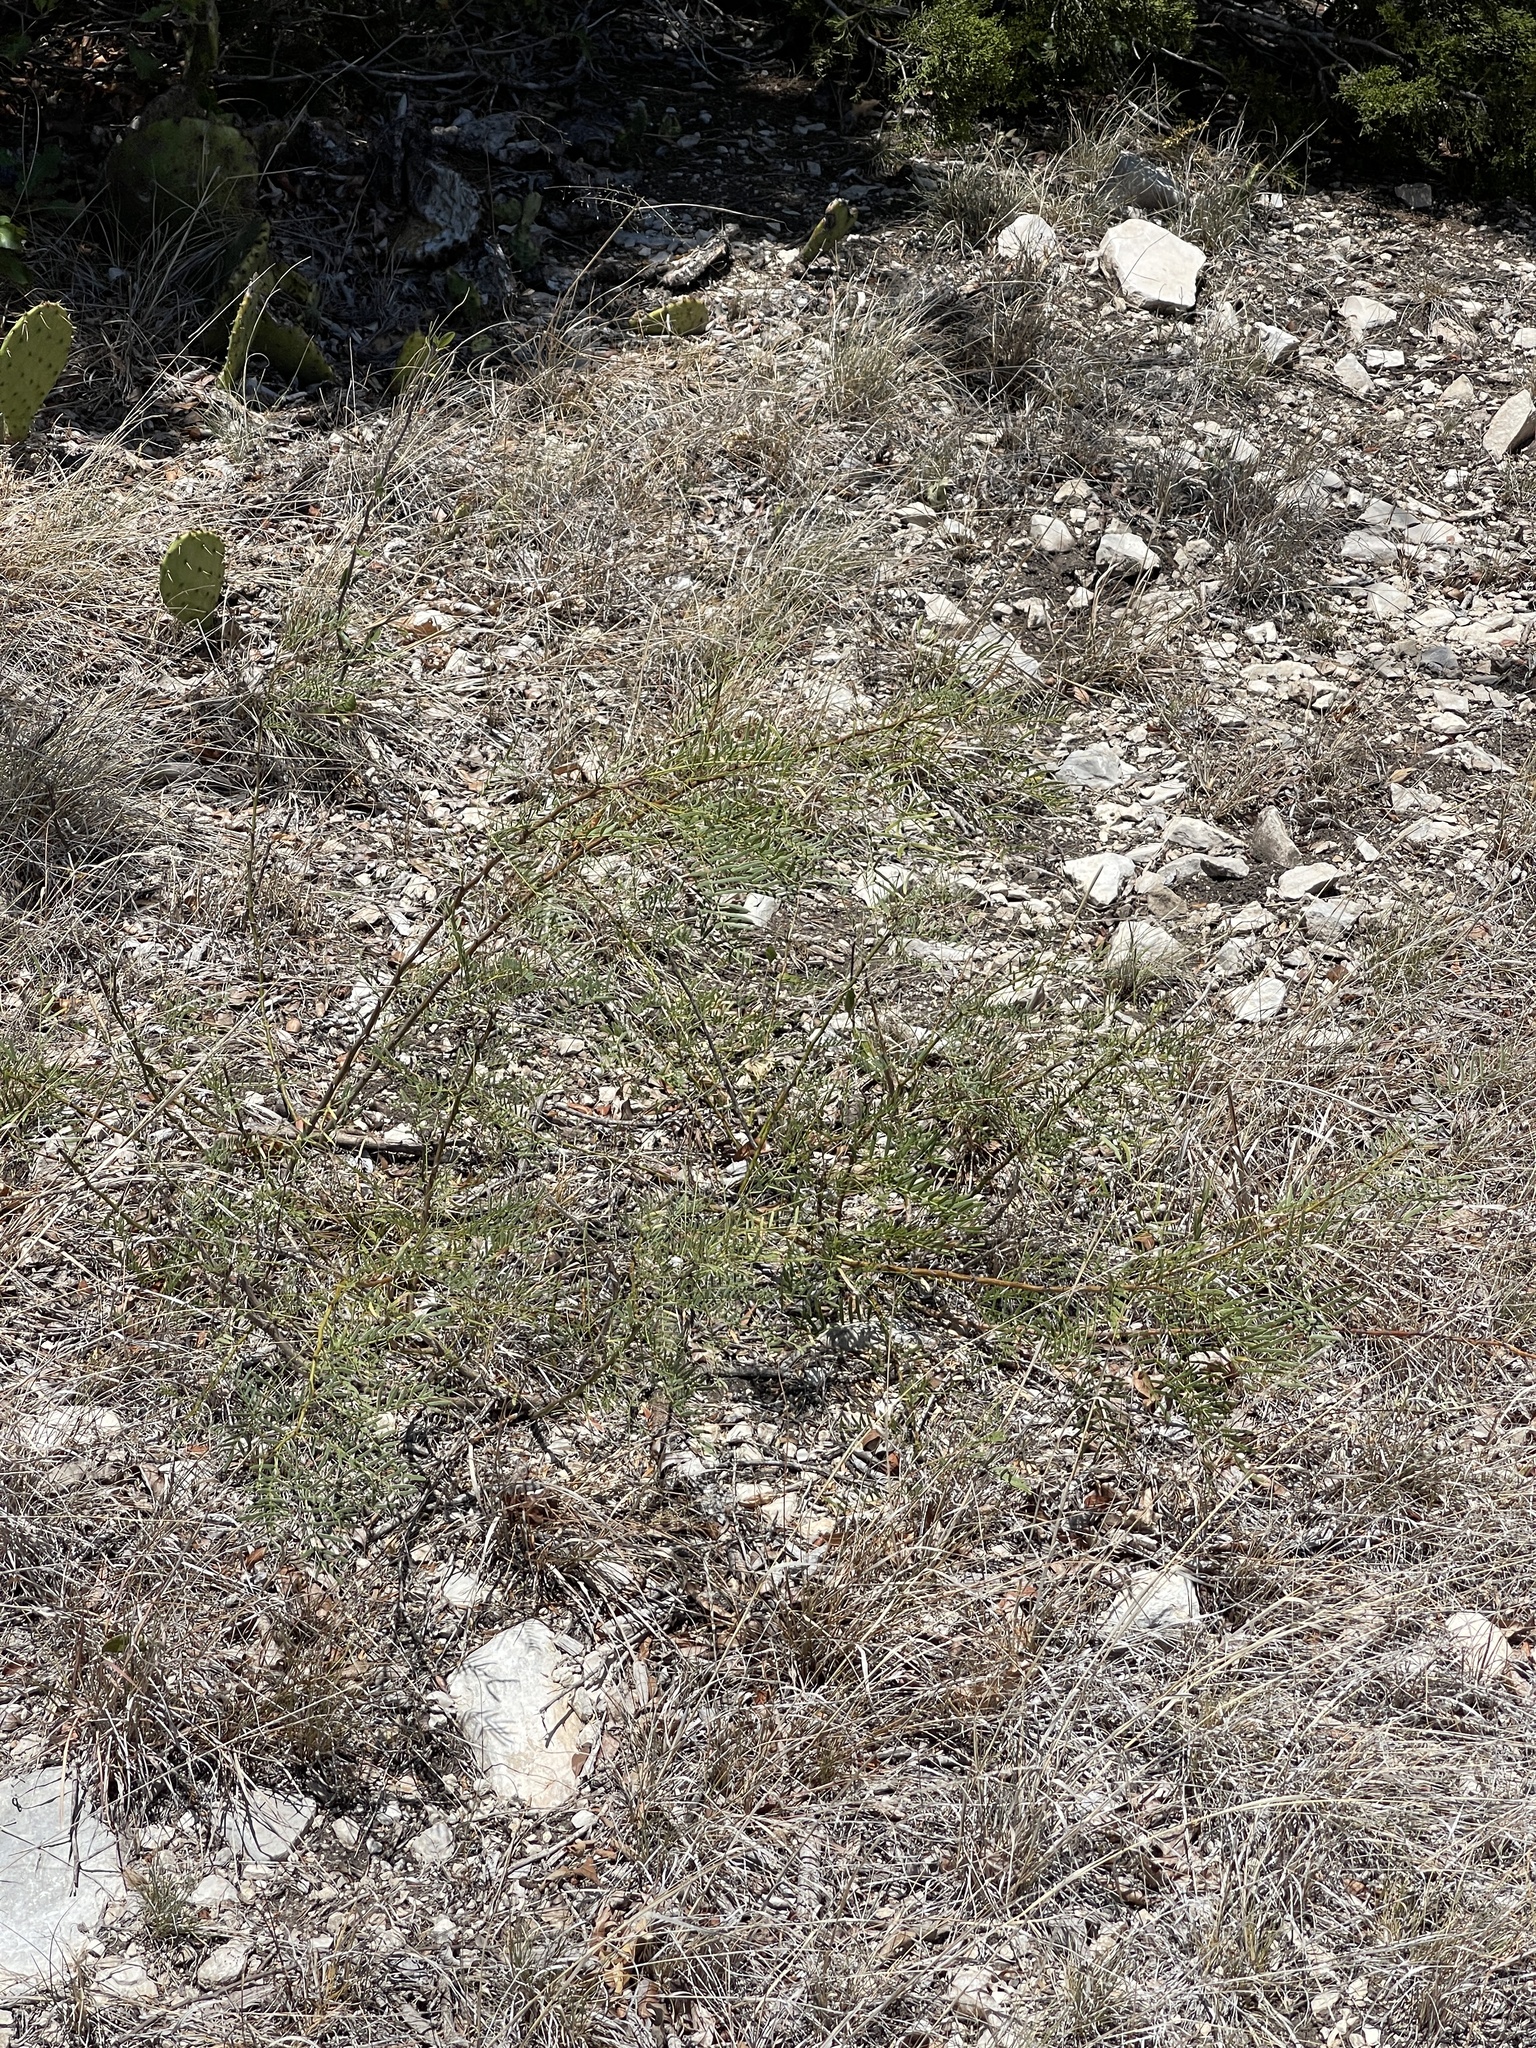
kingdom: Plantae
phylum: Tracheophyta
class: Magnoliopsida
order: Fabales
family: Fabaceae
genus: Prosopis
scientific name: Prosopis glandulosa
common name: Honey mesquite
